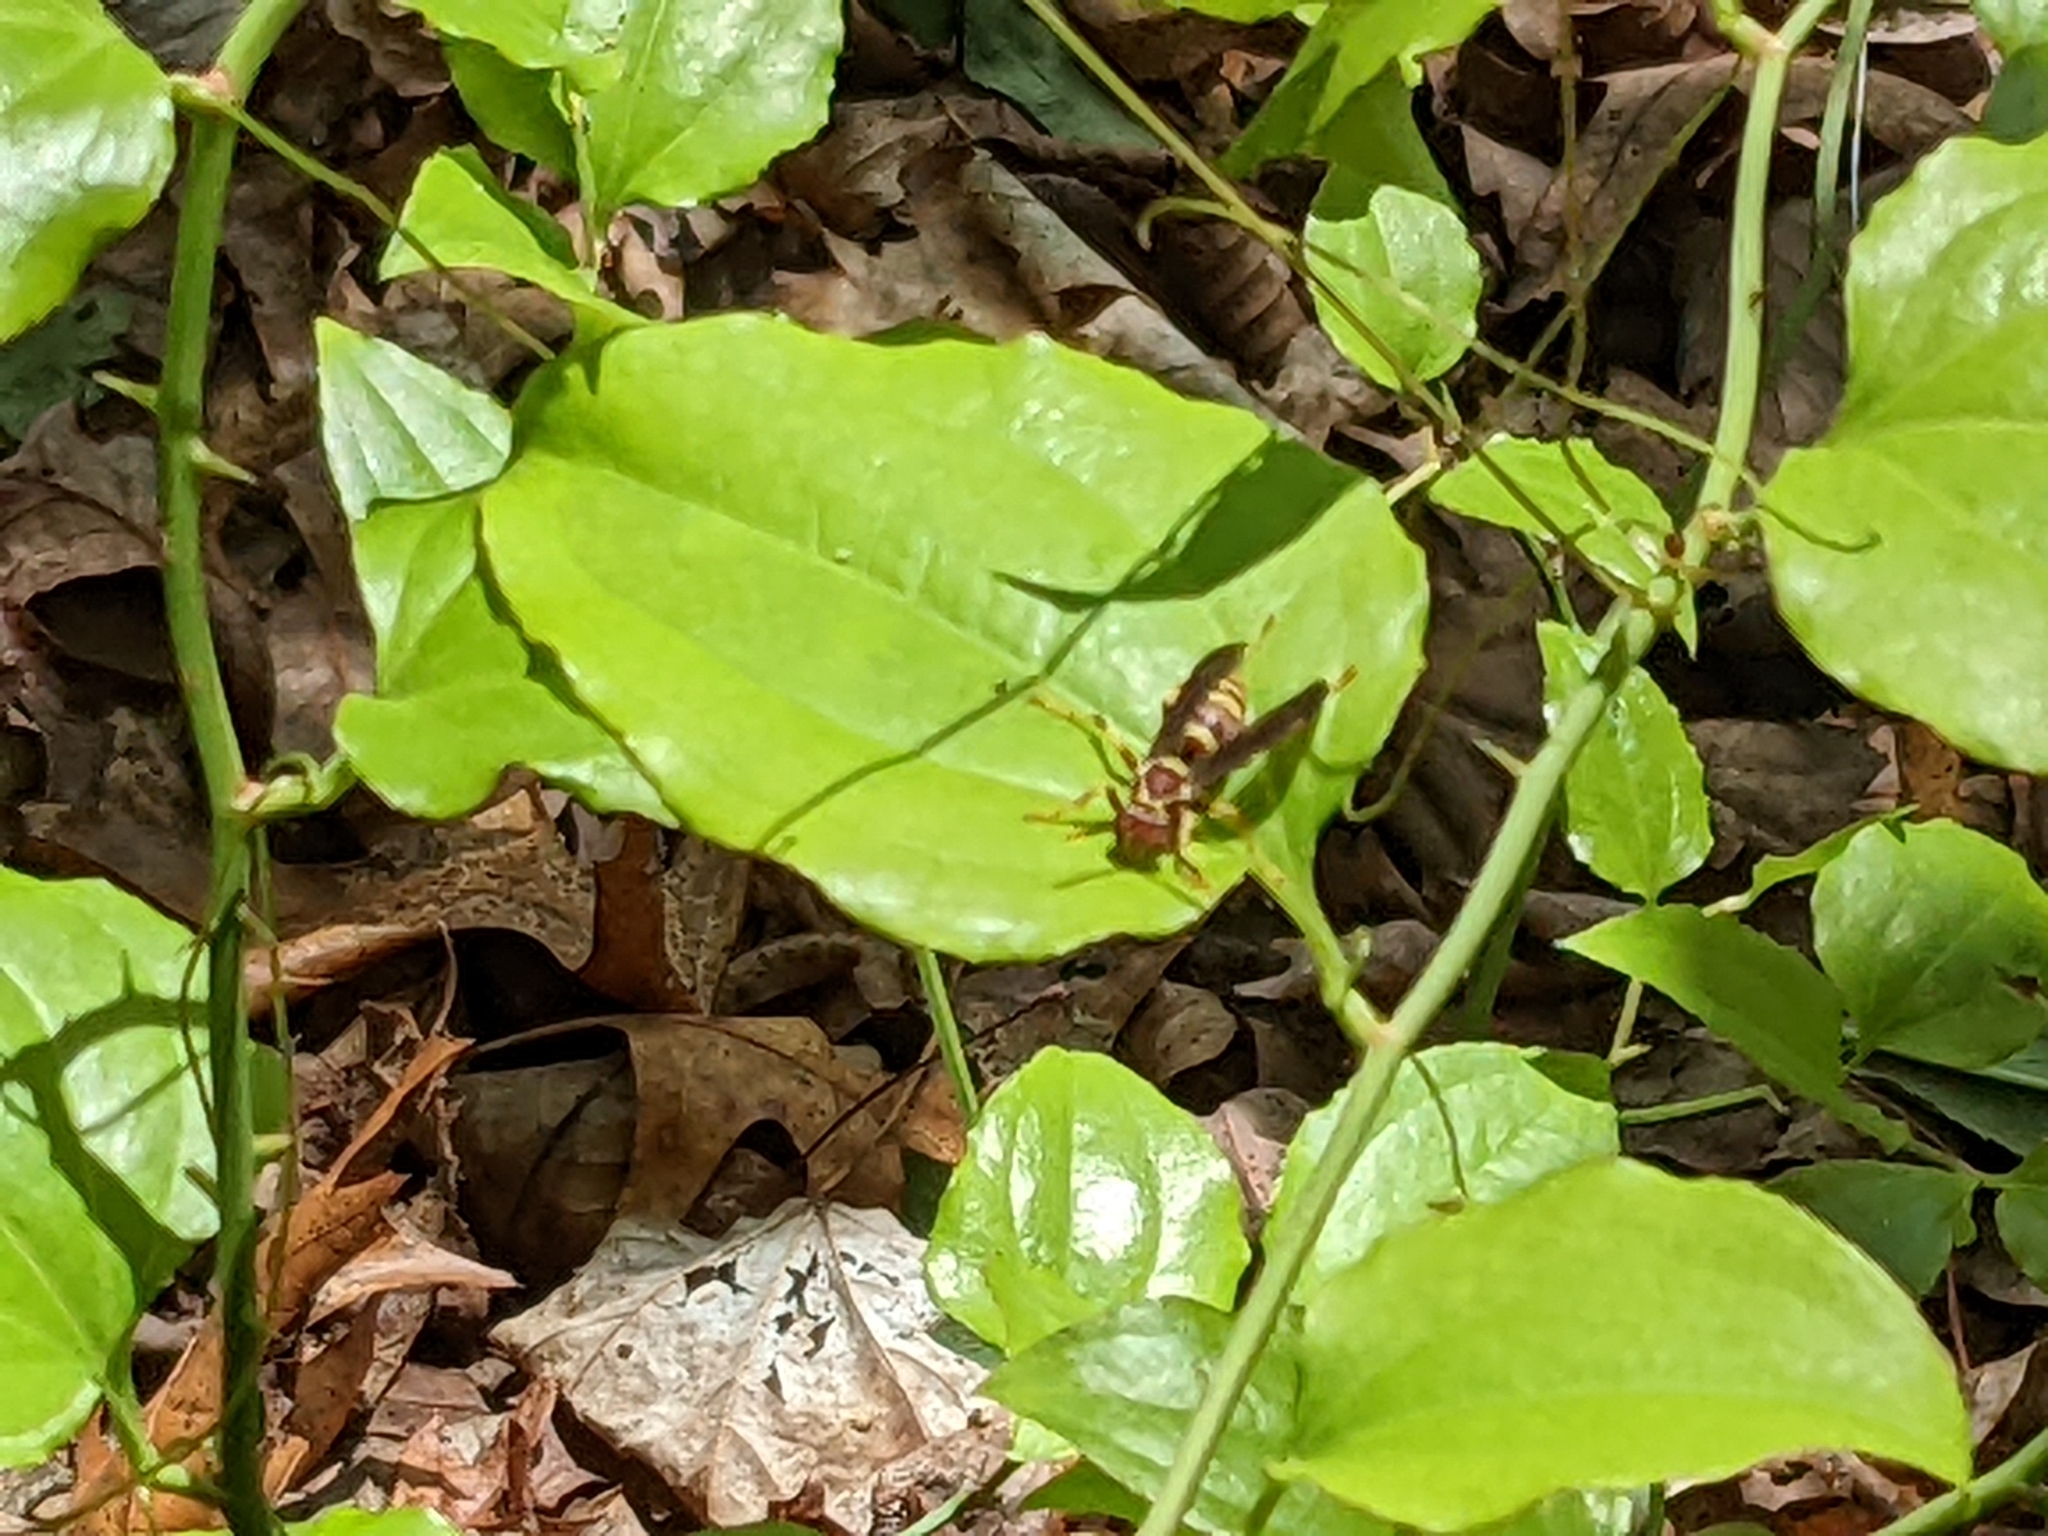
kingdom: Animalia
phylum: Arthropoda
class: Insecta
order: Hymenoptera
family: Eumenidae
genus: Polistes
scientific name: Polistes exclamans
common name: Paper wasp
